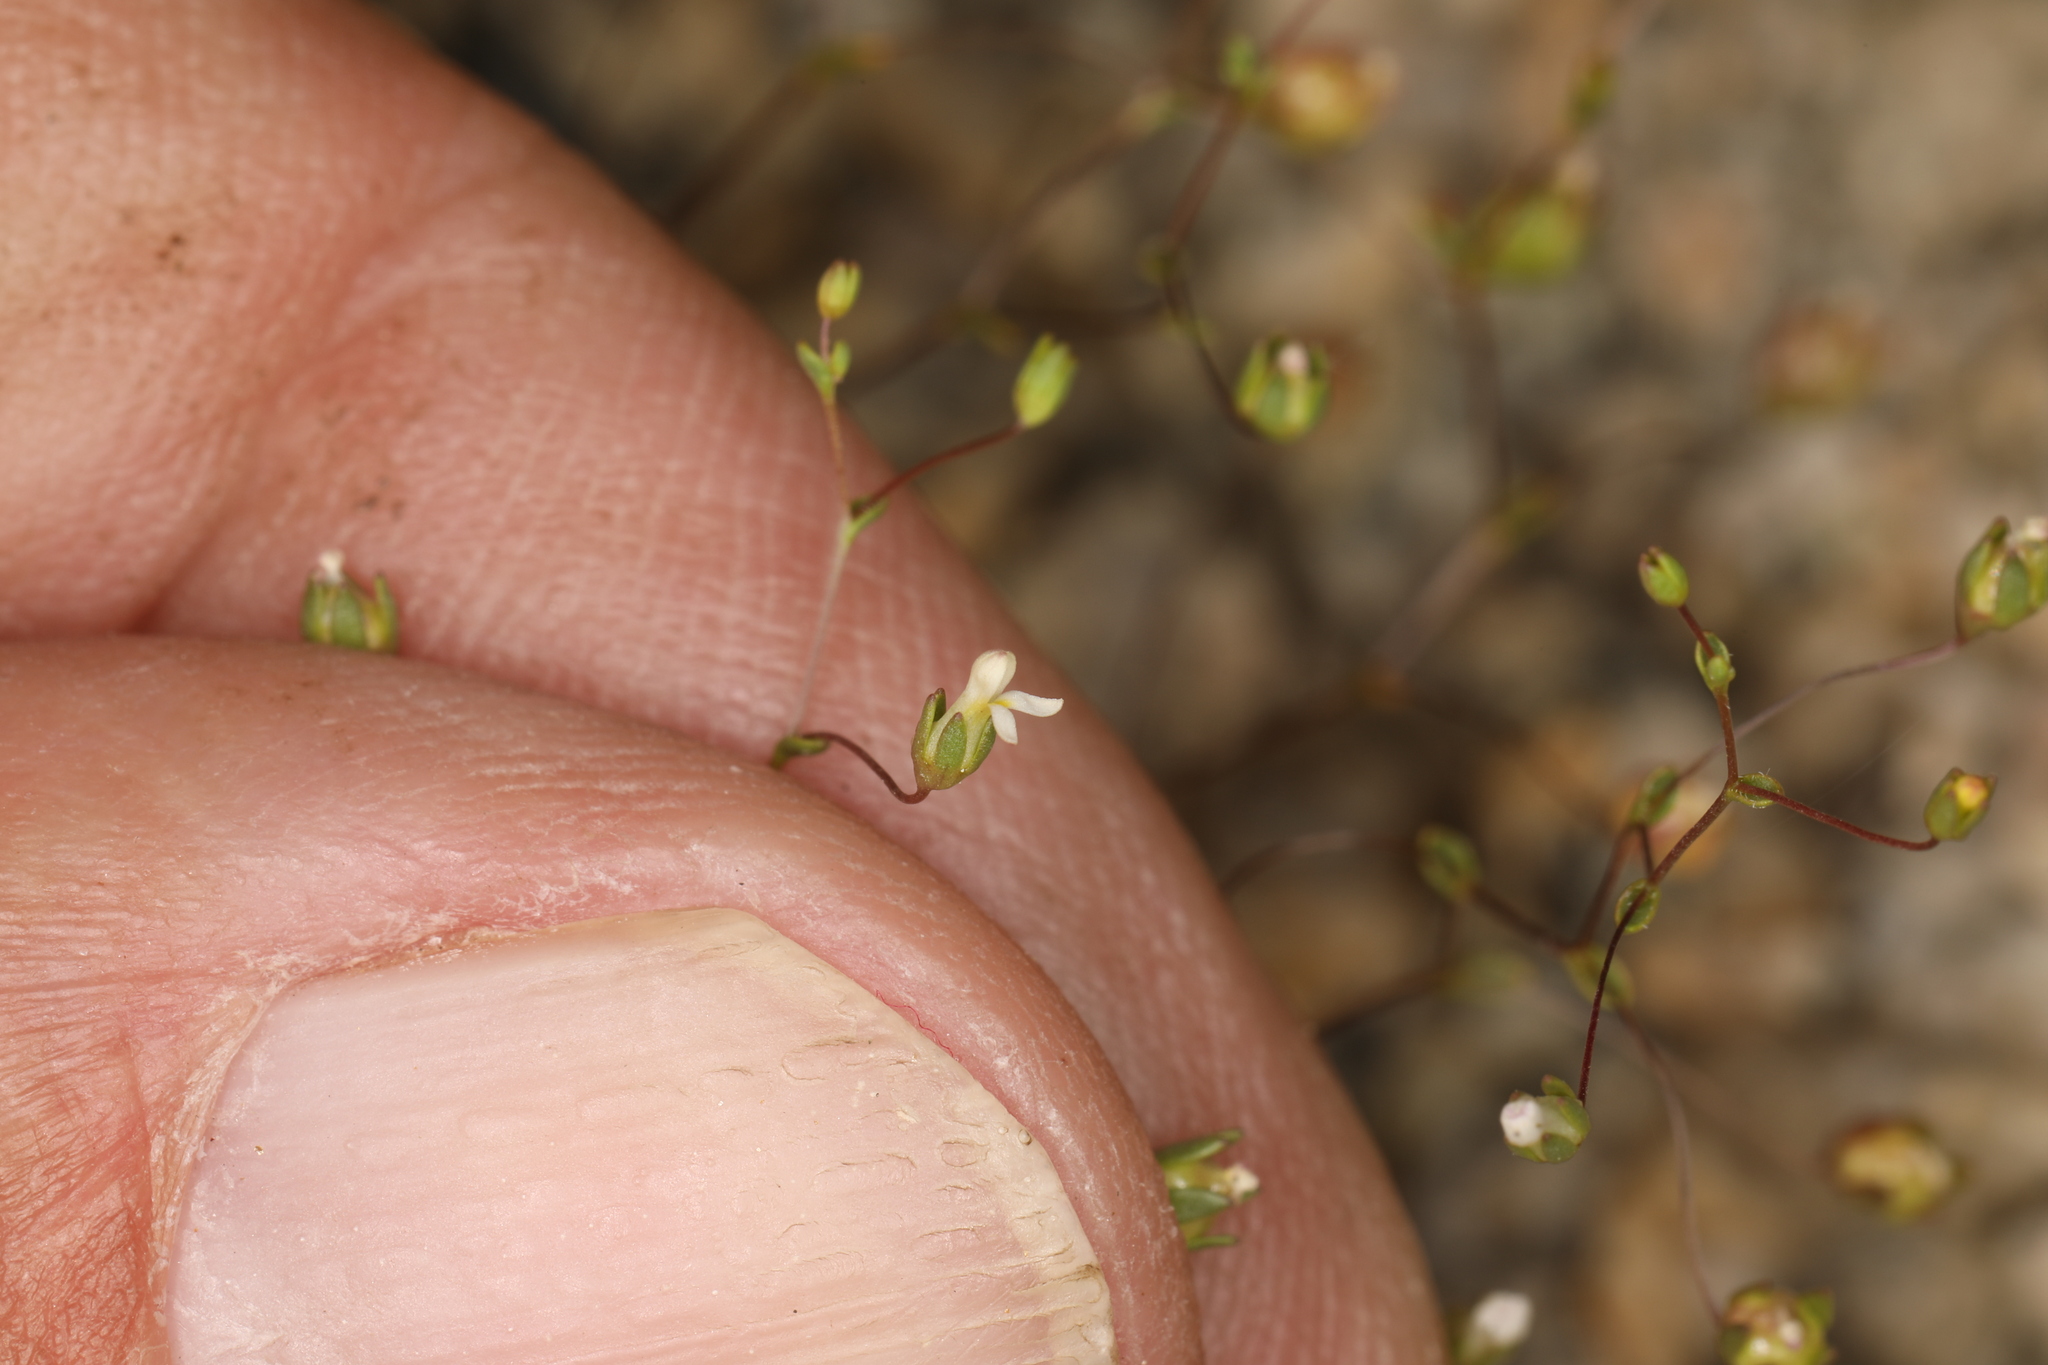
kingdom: Plantae
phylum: Tracheophyta
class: Magnoliopsida
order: Asterales
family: Campanulaceae
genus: Nemacladus
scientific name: Nemacladus sigmoideus
